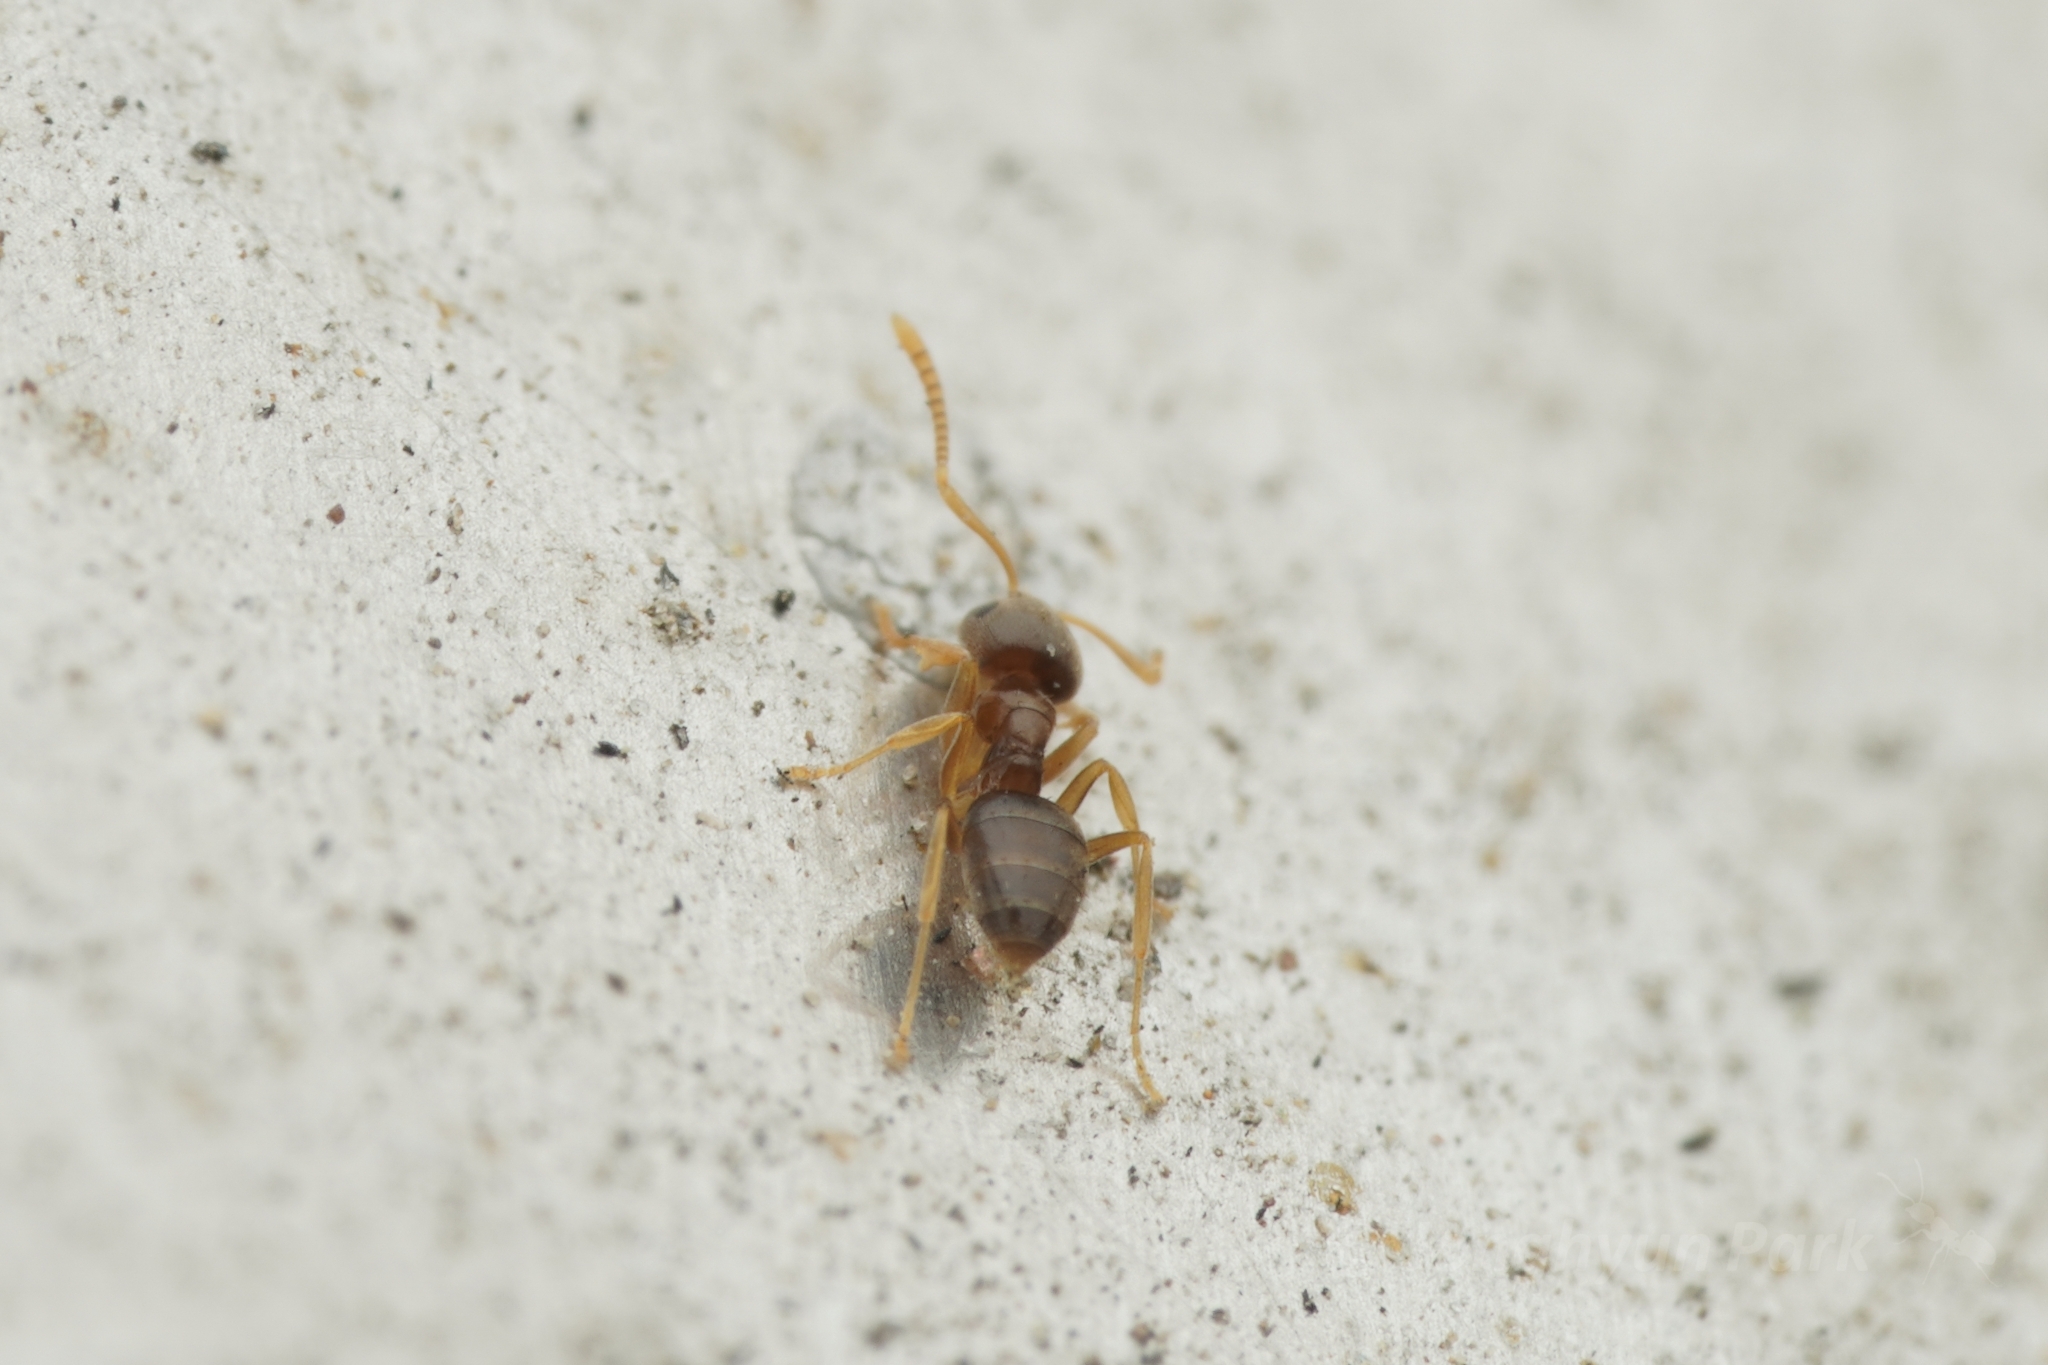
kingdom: Animalia
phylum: Arthropoda
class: Insecta
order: Hymenoptera
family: Formicidae
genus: Paraparatrechina
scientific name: Paraparatrechina
